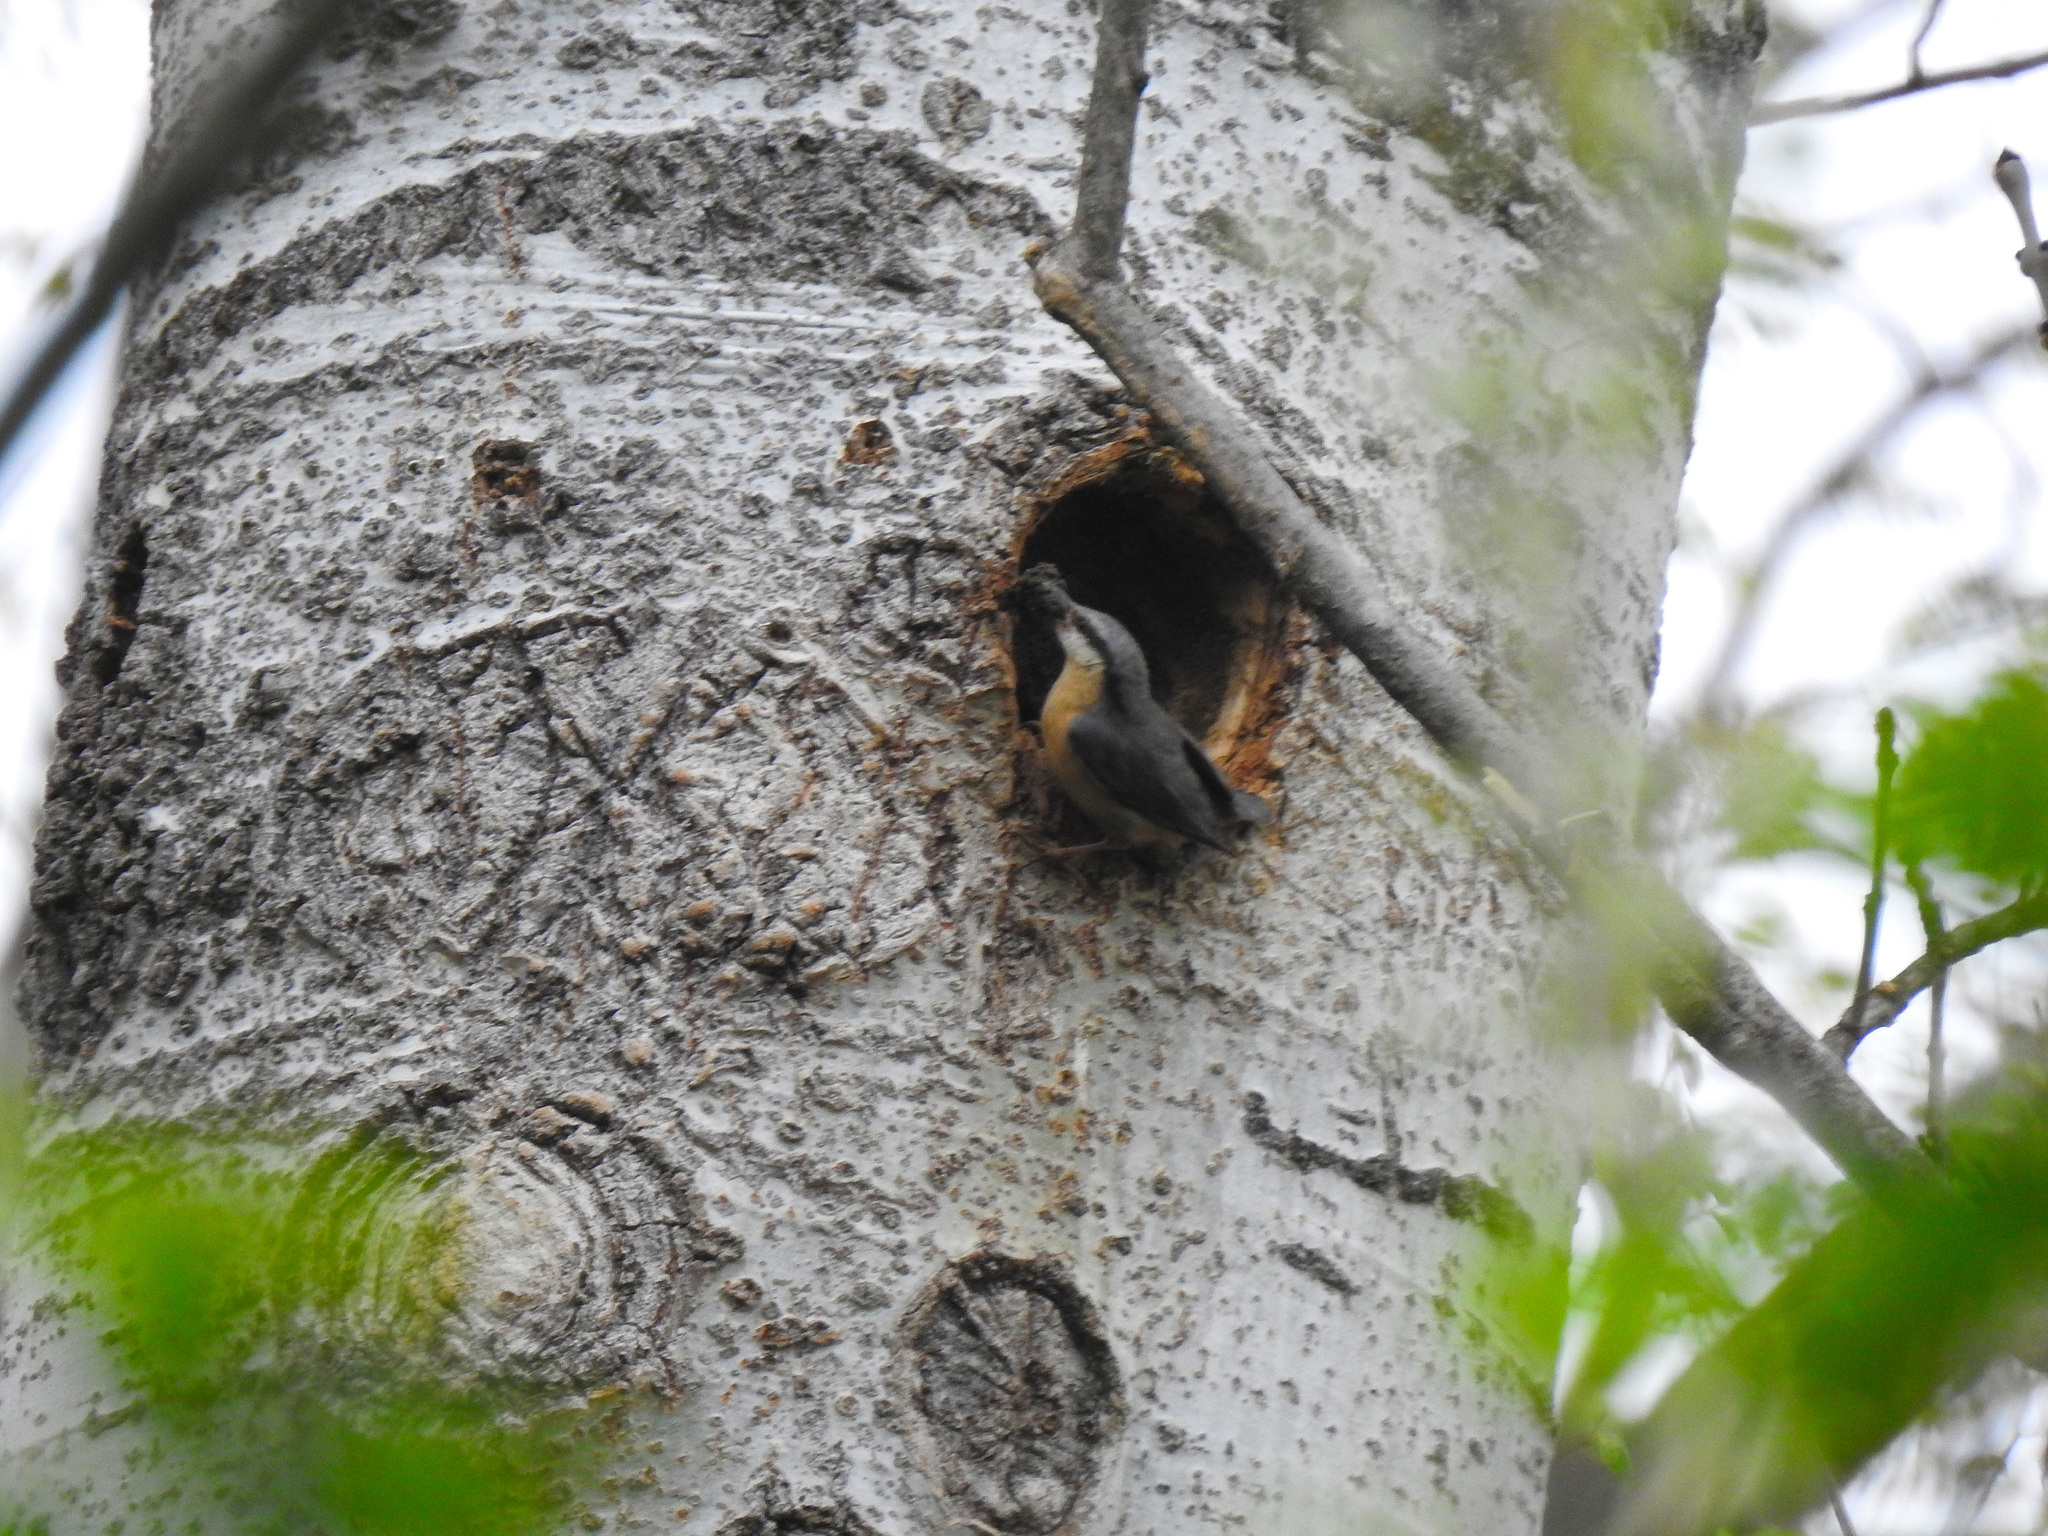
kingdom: Animalia
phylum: Chordata
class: Aves
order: Passeriformes
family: Sittidae
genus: Sitta
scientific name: Sitta europaea
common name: Eurasian nuthatch
